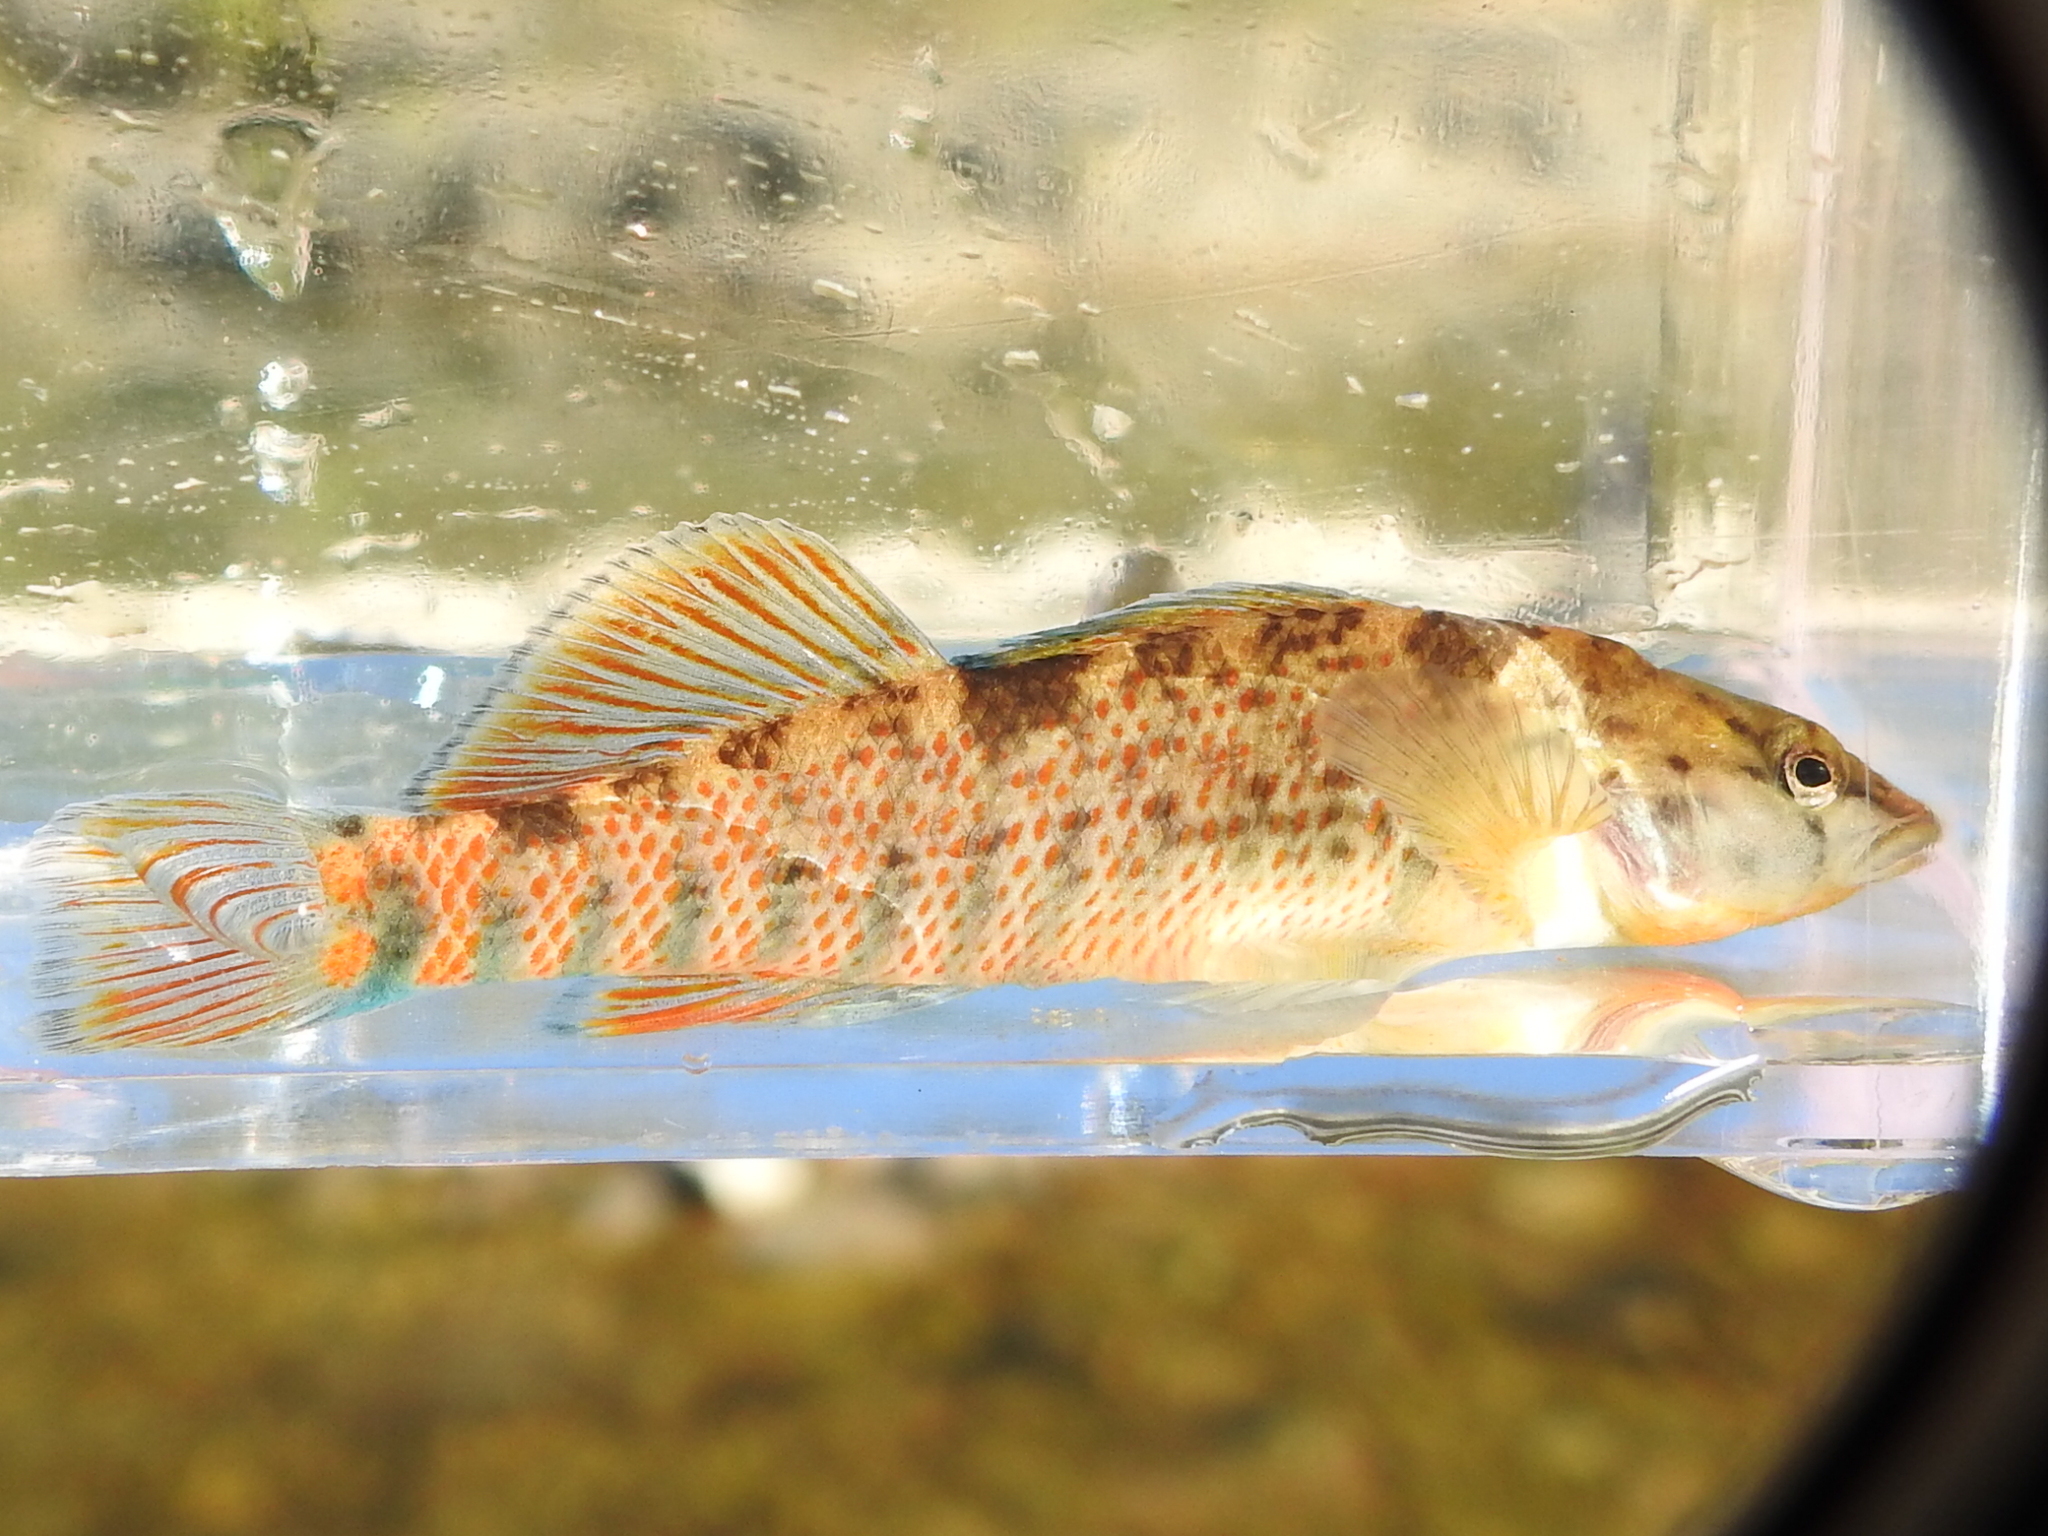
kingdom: Animalia
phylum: Chordata
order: Perciformes
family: Percidae
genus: Etheostoma
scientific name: Etheostoma caeruleum
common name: Rainbow darter
